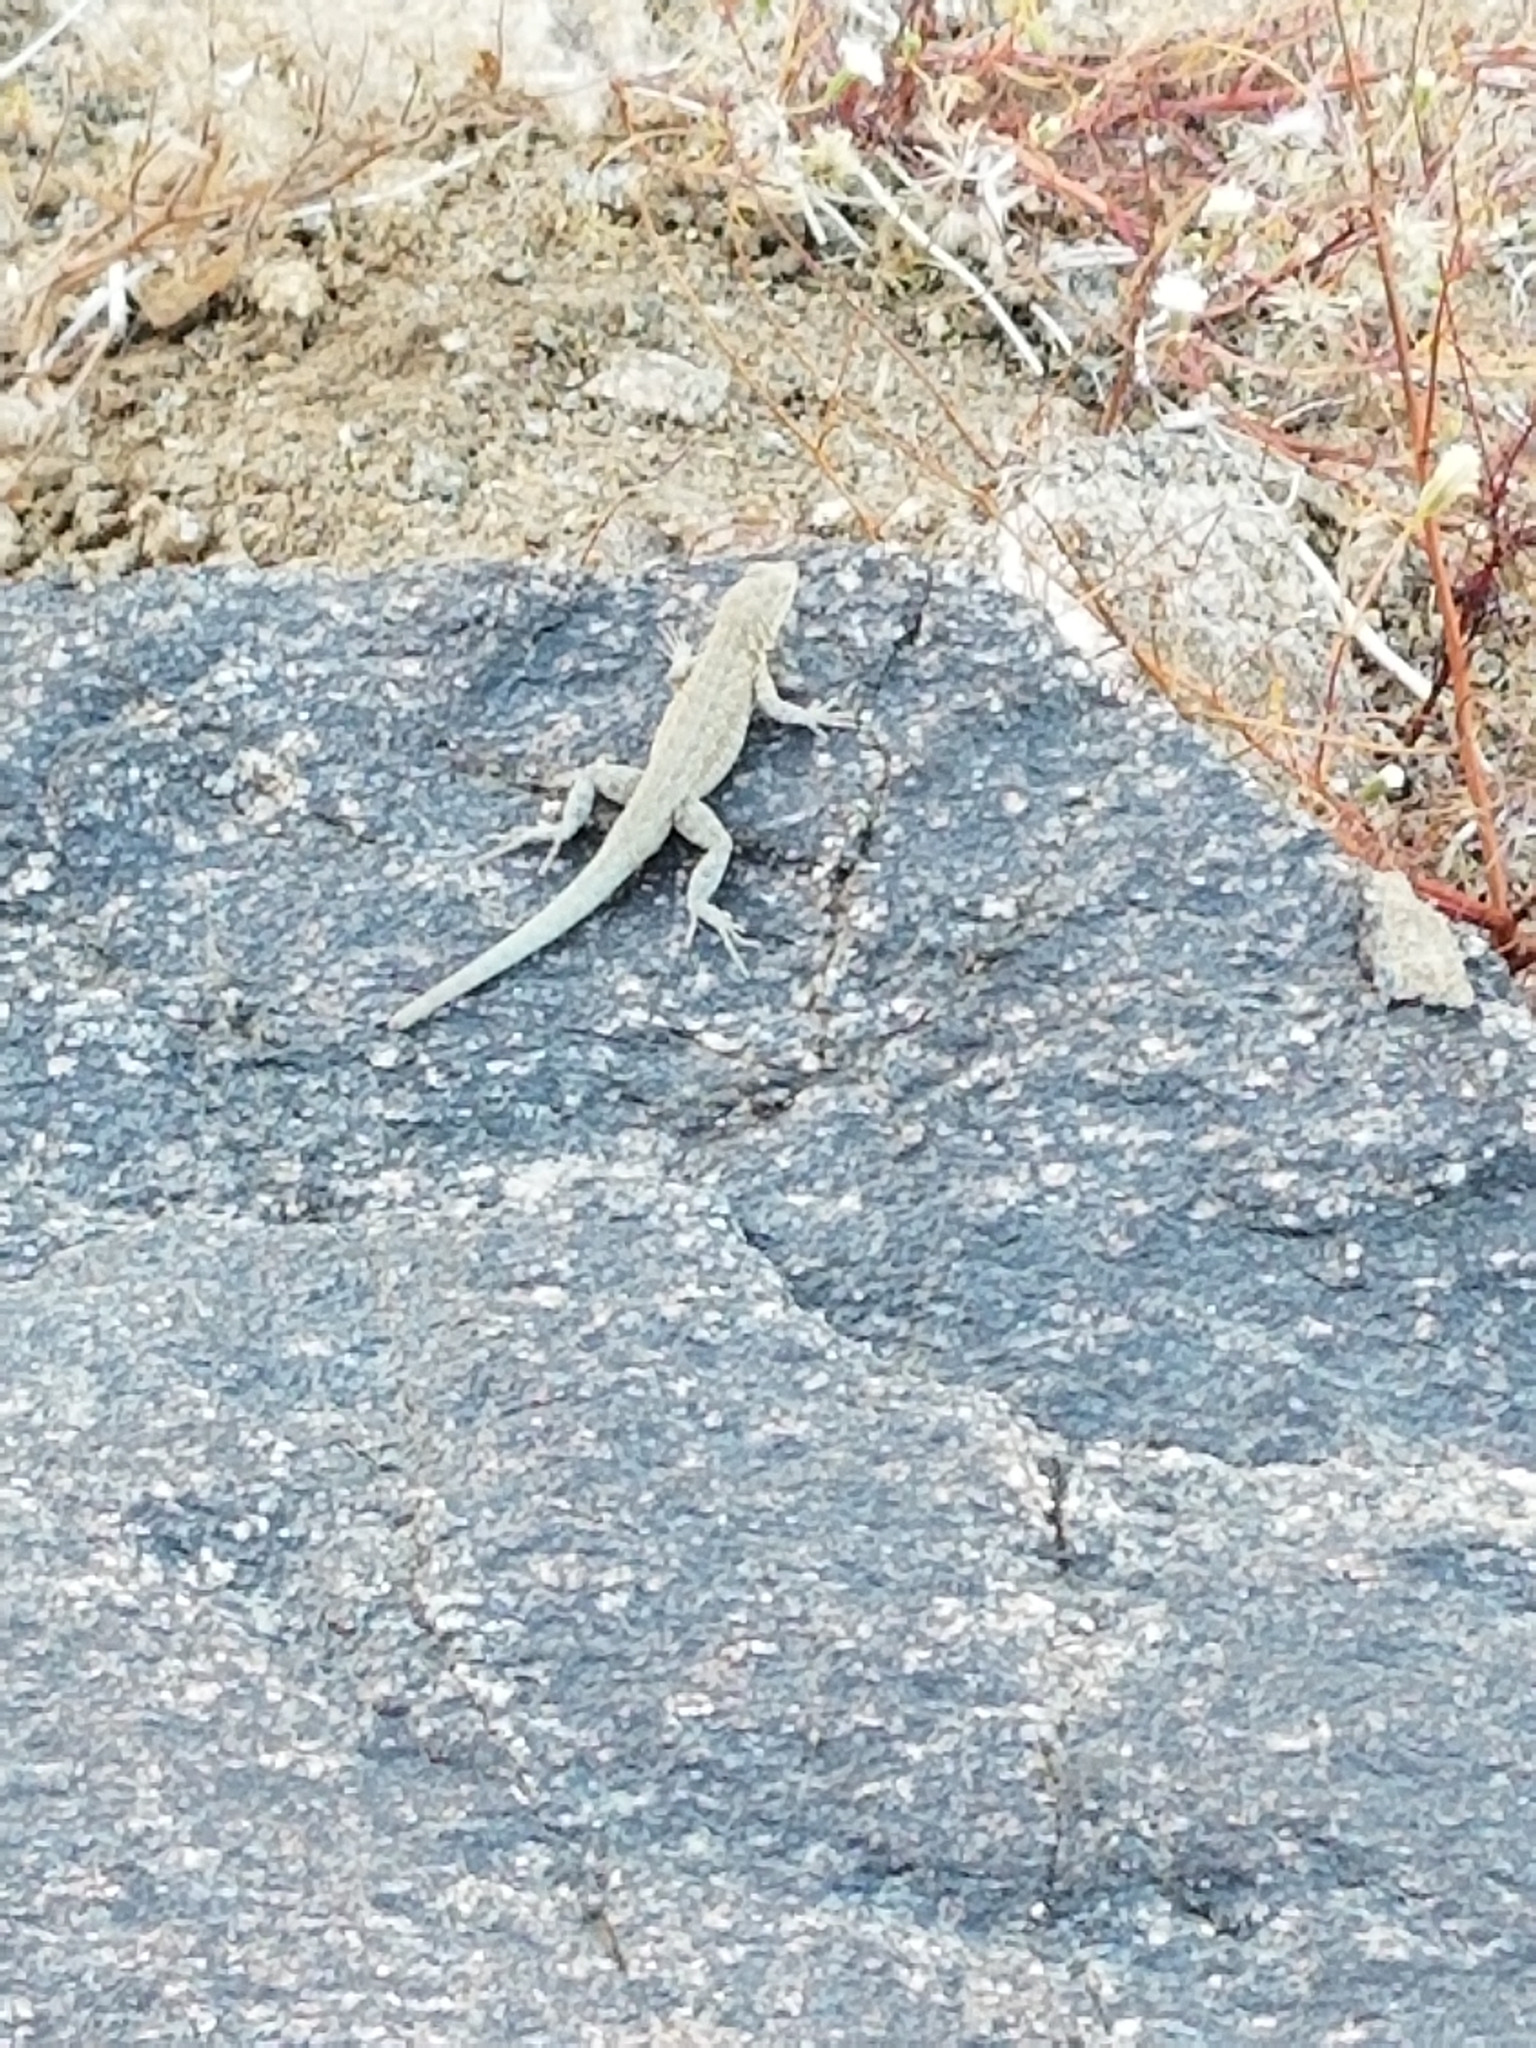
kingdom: Animalia
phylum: Chordata
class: Squamata
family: Phrynosomatidae
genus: Uta
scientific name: Uta stansburiana
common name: Side-blotched lizard
